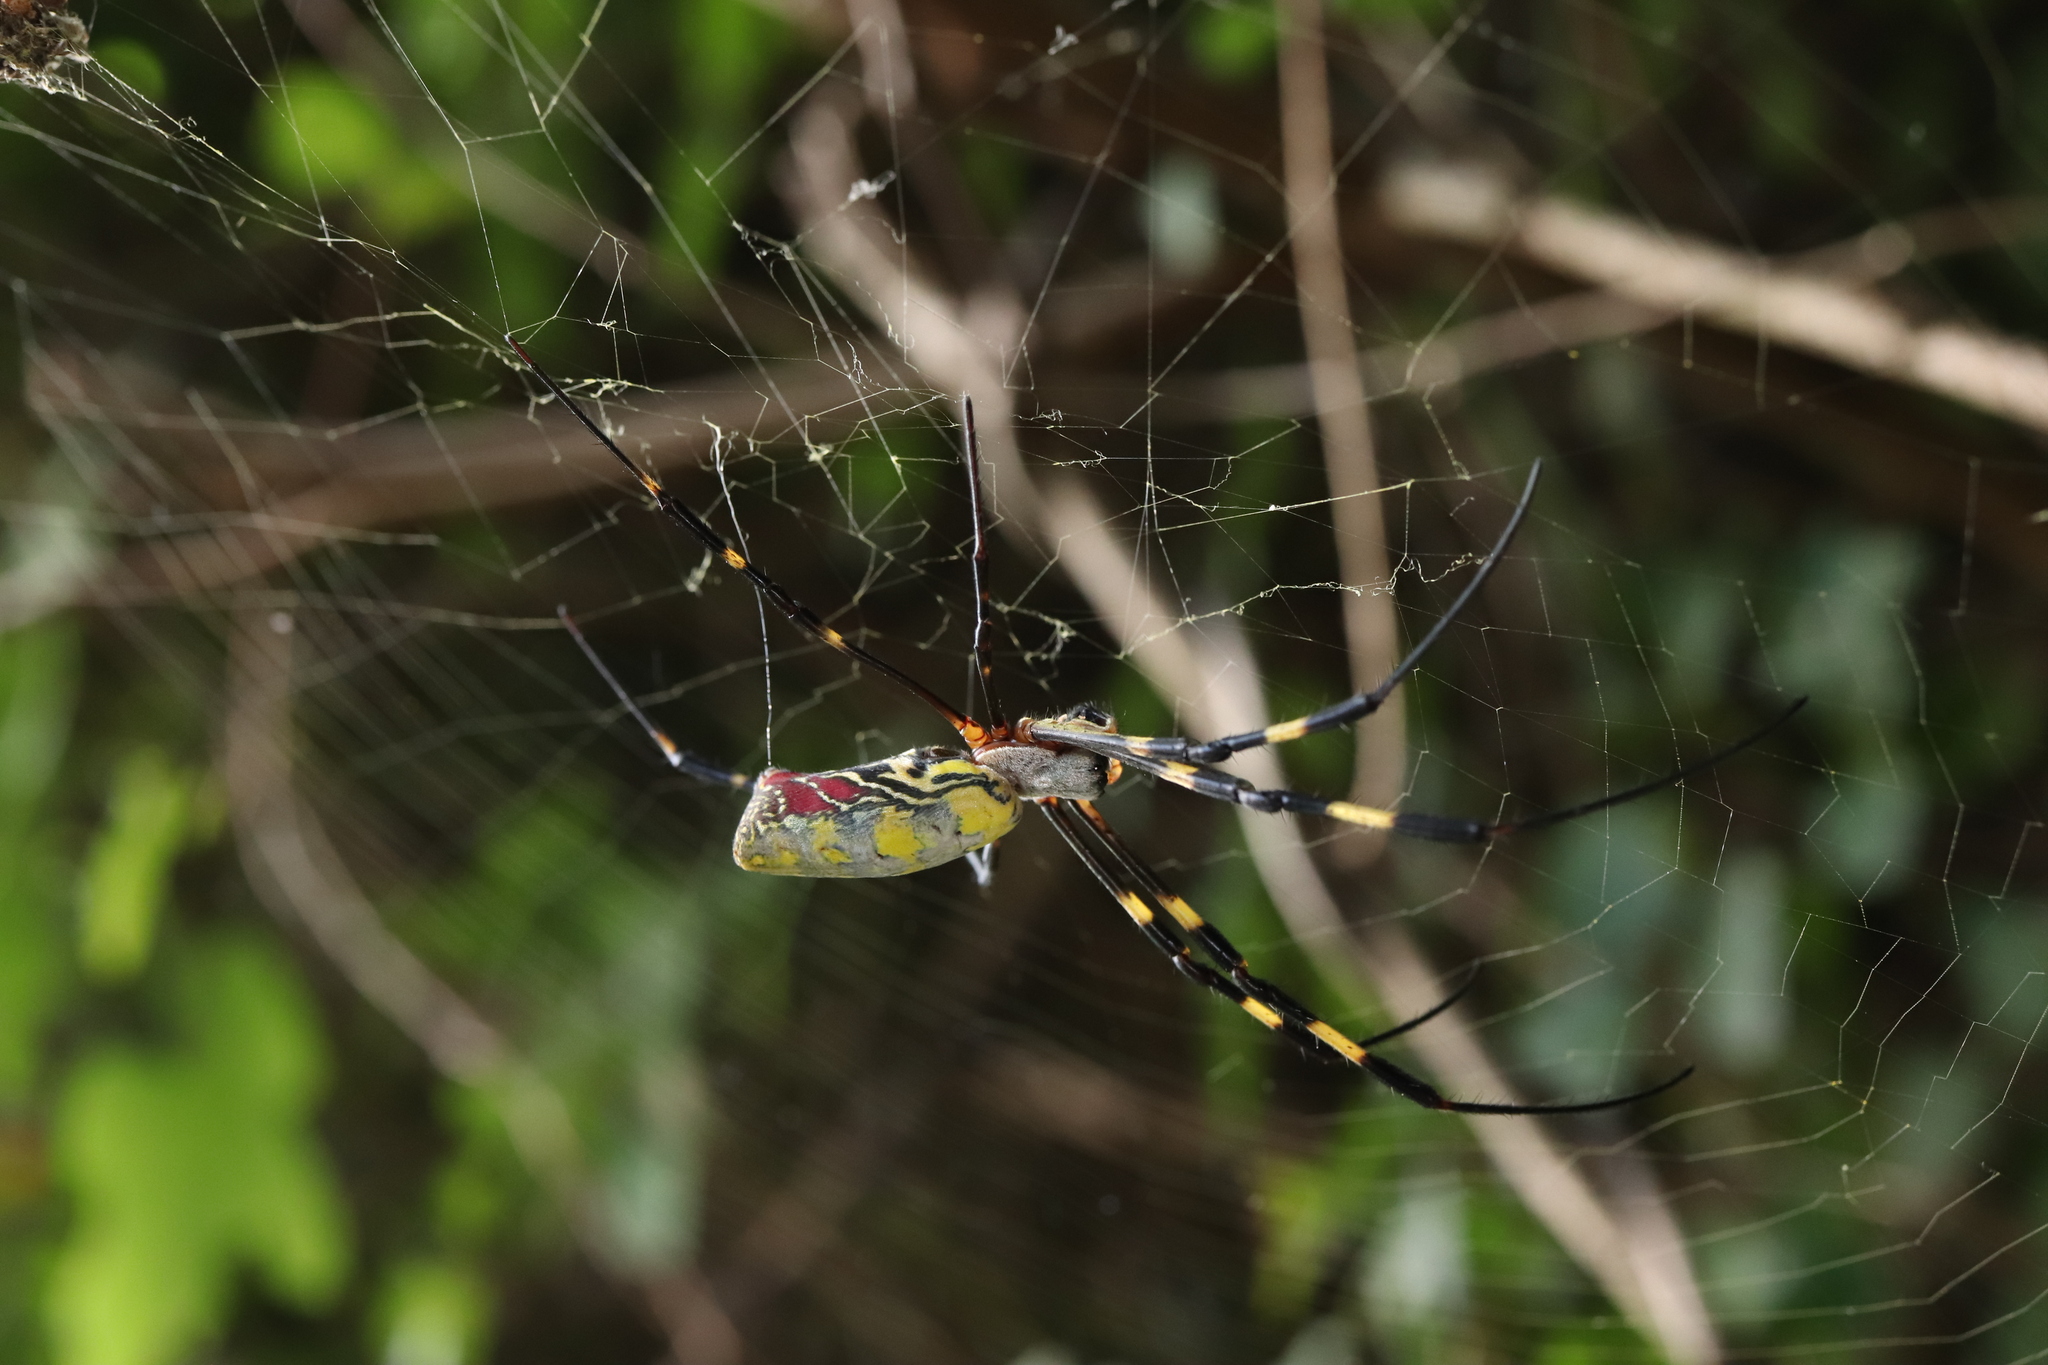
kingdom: Animalia
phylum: Arthropoda
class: Arachnida
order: Araneae
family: Araneidae
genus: Trichonephila
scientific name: Trichonephila clavata
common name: Jorō spider
